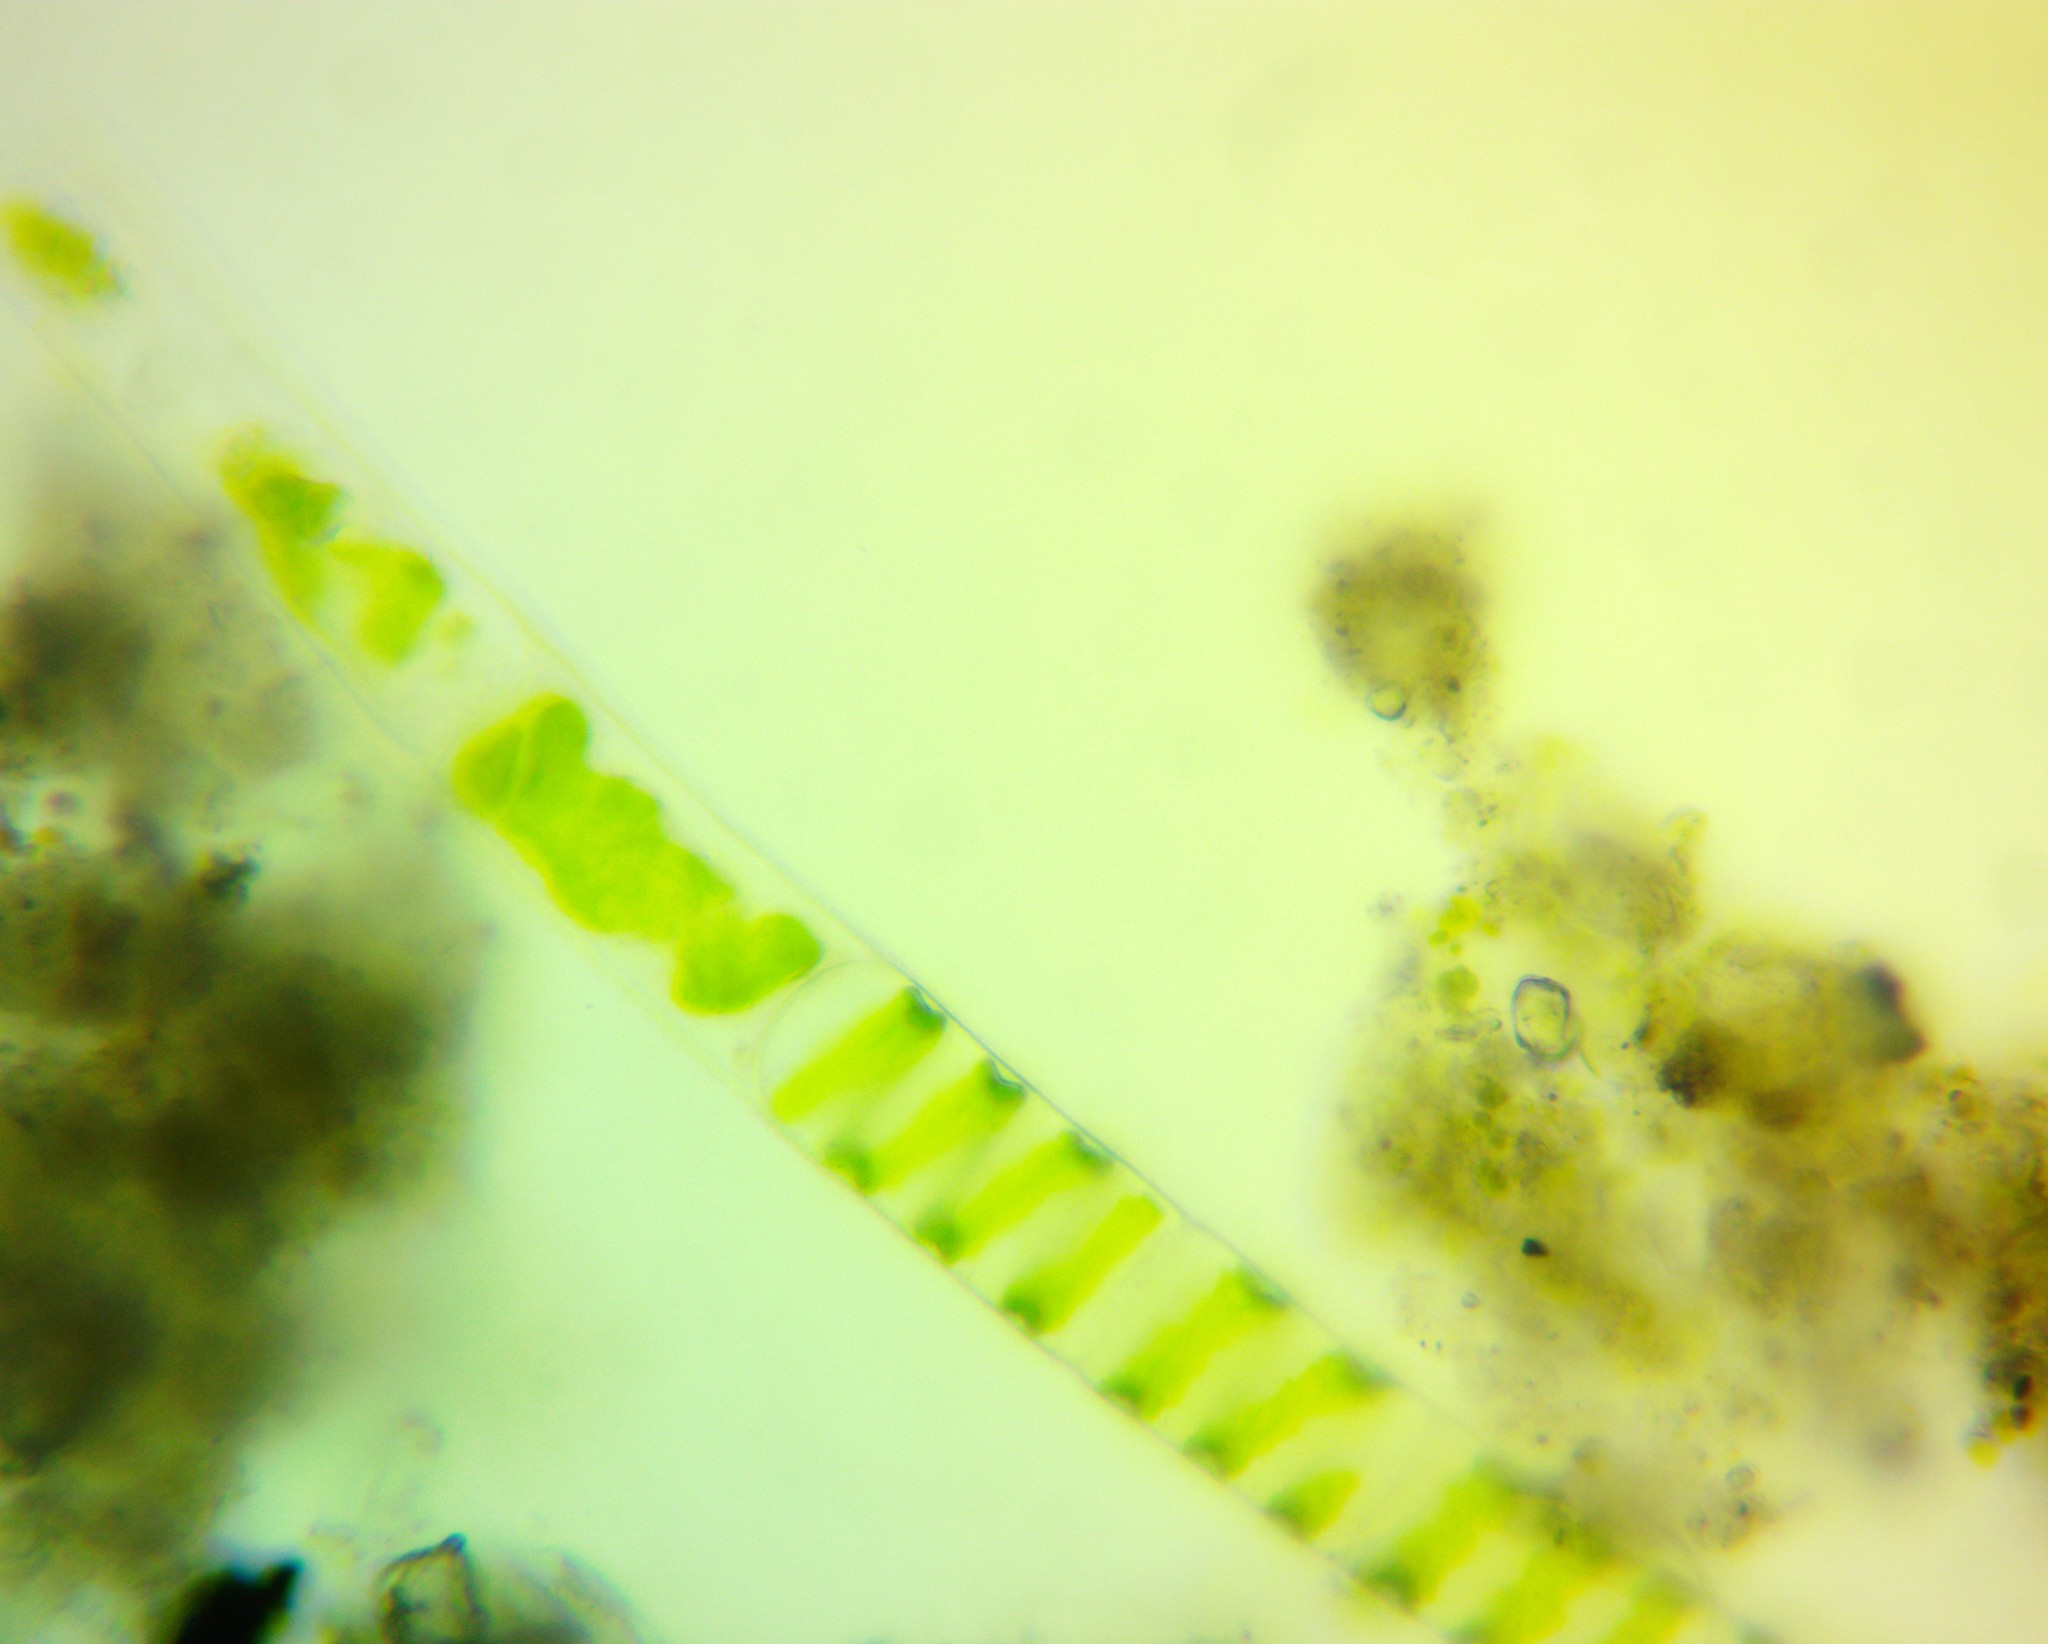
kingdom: Plantae
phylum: Charophyta
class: Zygnematophyceae
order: Zygnematales
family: Zygnemataceae
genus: Spirogyra
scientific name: Spirogyra
